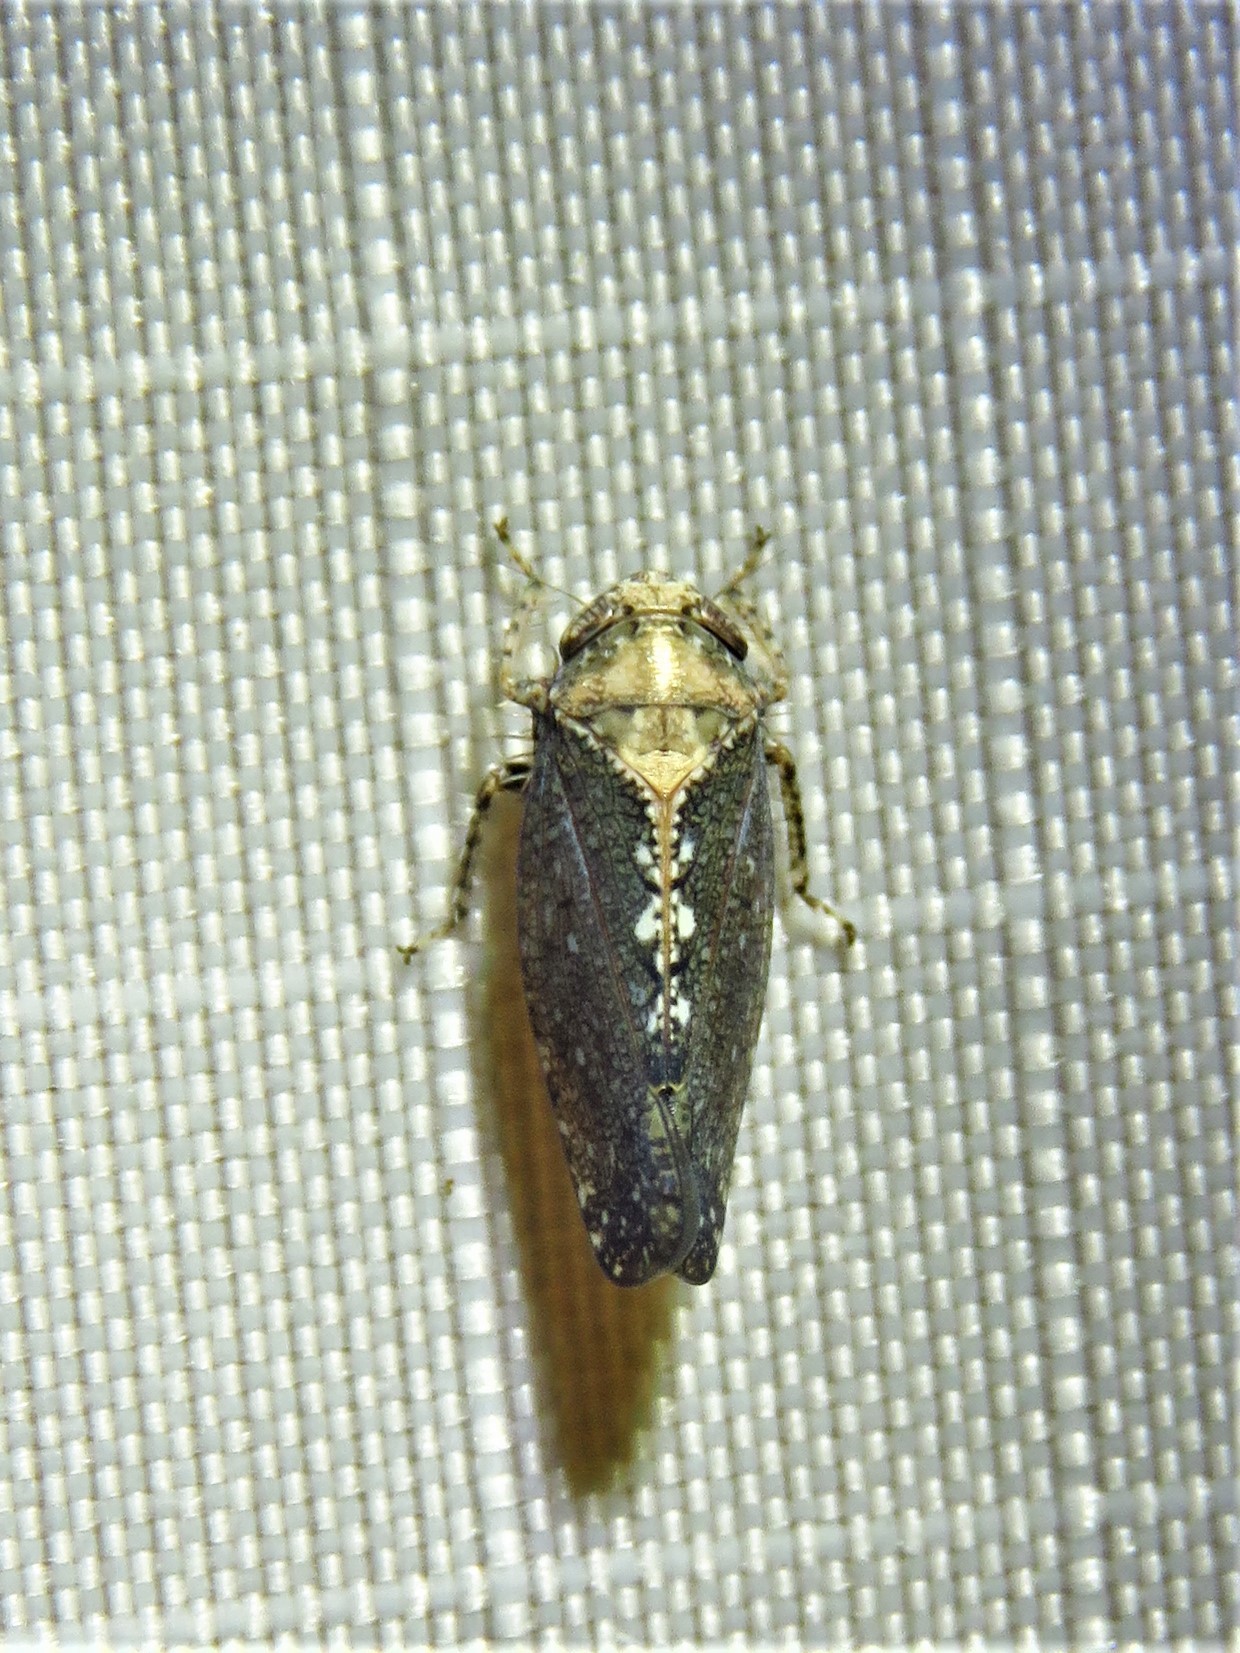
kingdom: Animalia
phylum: Arthropoda
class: Insecta
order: Hemiptera
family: Cicadellidae
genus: Excultanus
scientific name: Excultanus excultus
